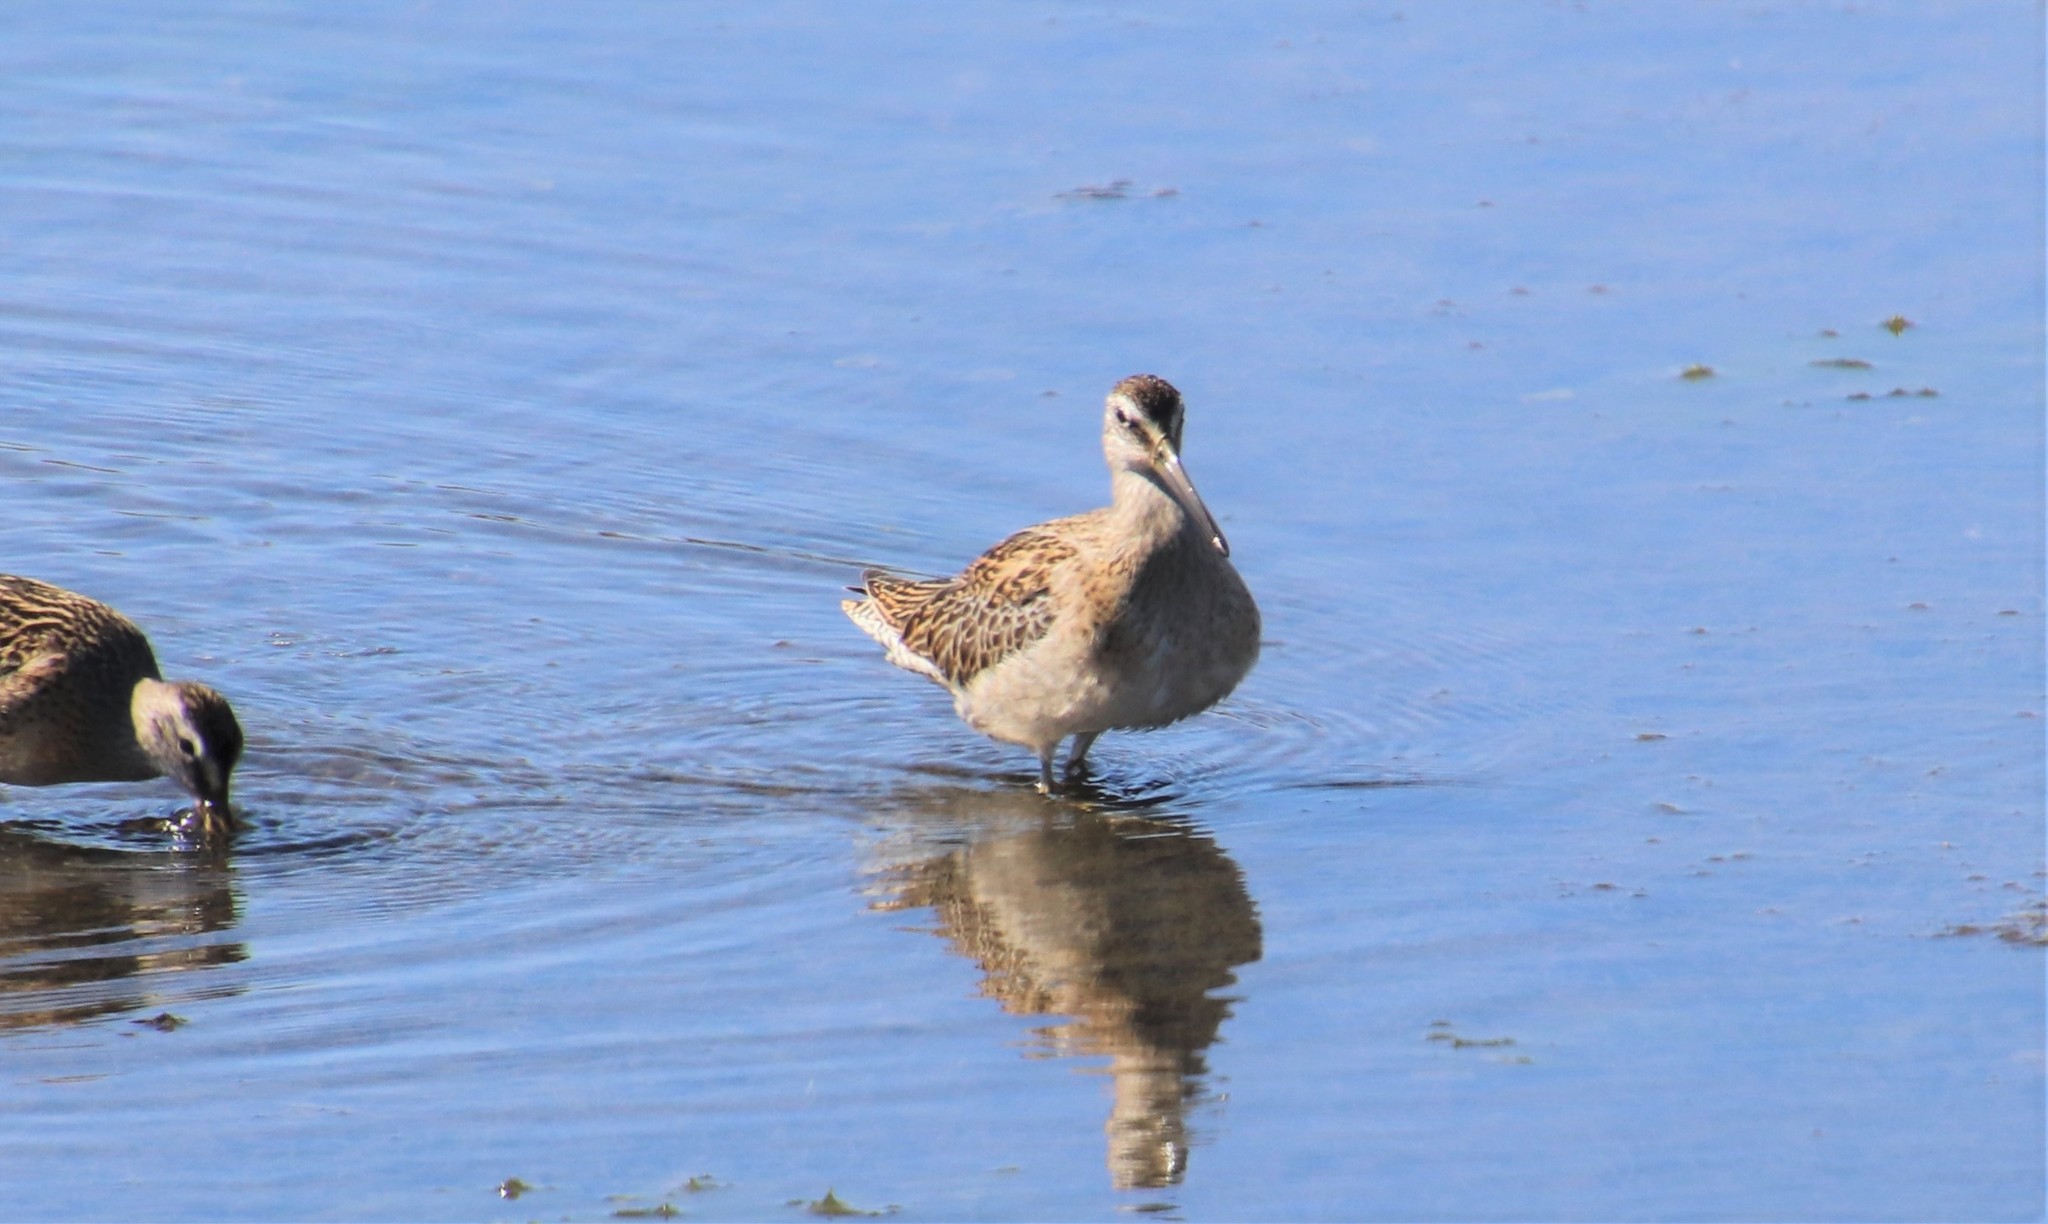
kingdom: Animalia
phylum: Chordata
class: Aves
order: Charadriiformes
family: Scolopacidae
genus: Limnodromus
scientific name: Limnodromus griseus
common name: Short-billed dowitcher
